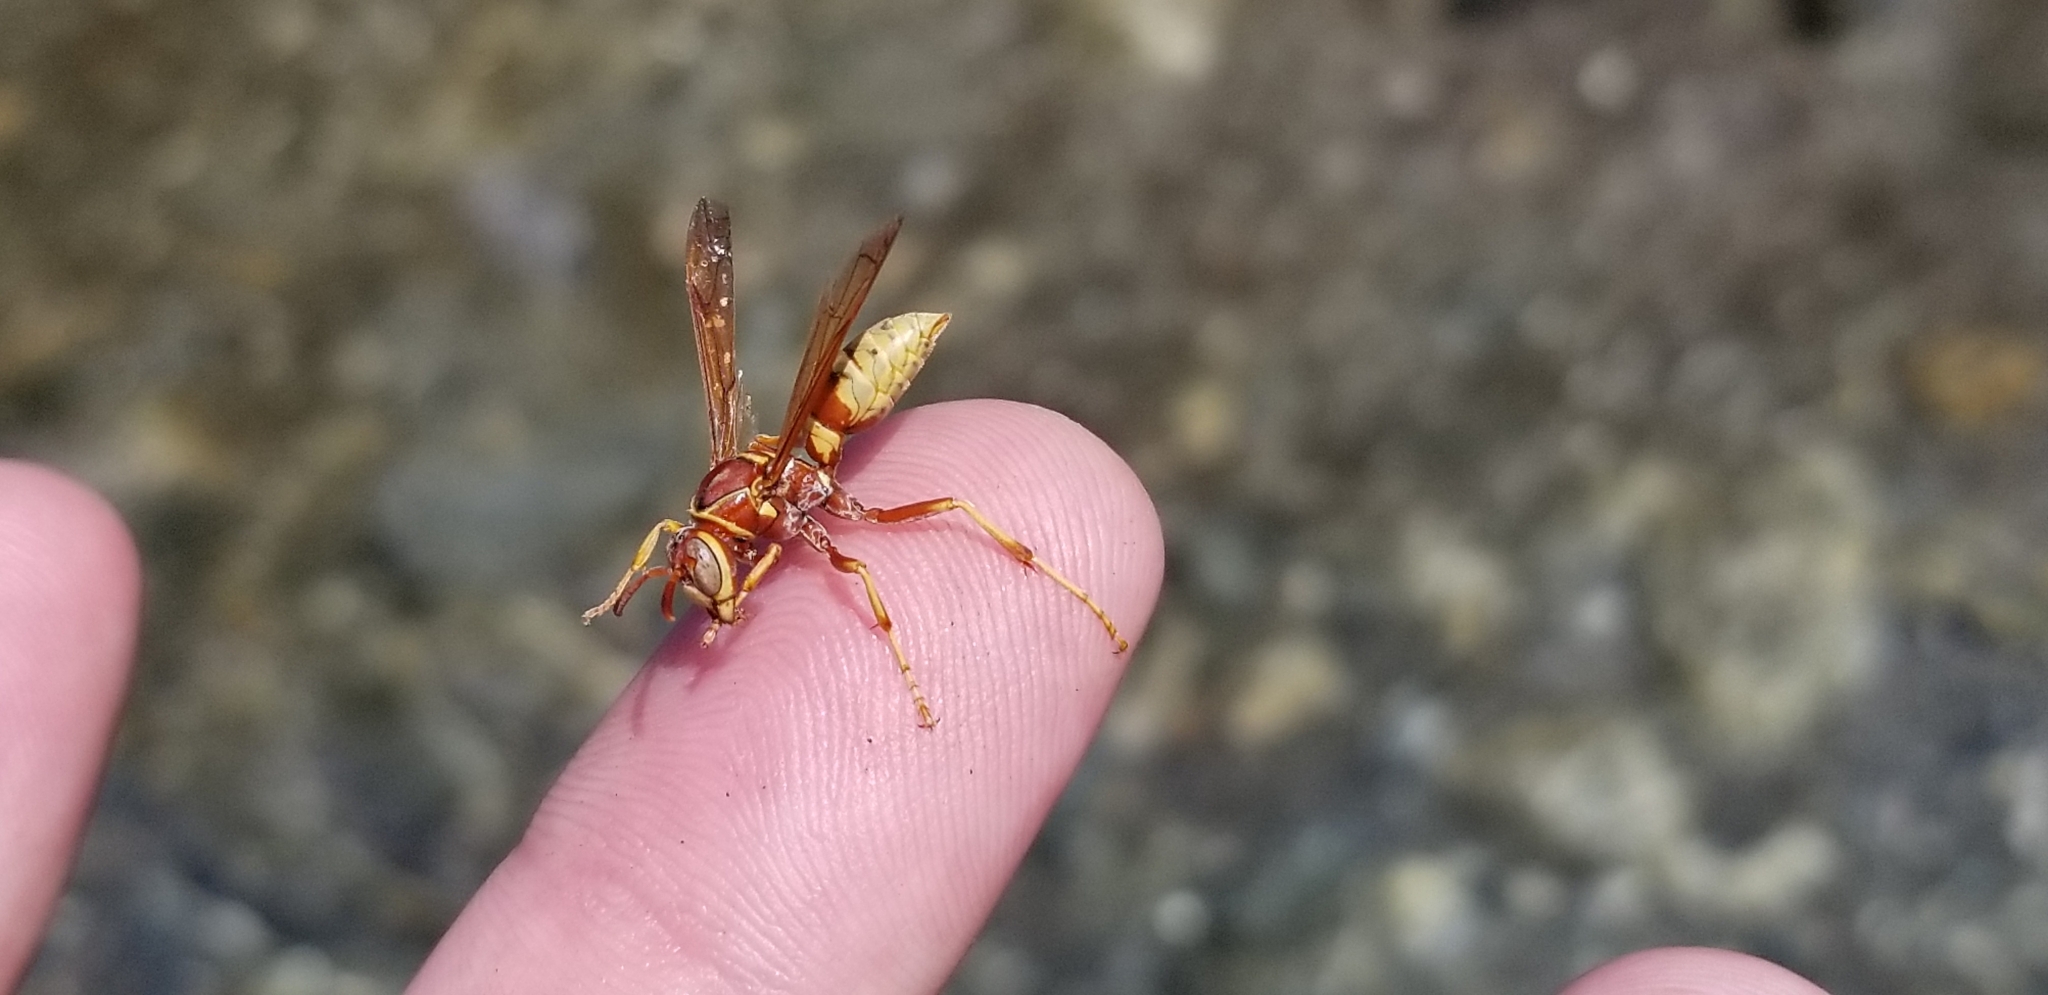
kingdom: Animalia
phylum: Arthropoda
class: Insecta
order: Hymenoptera
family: Eumenidae
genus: Polistes
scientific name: Polistes dorsalis
